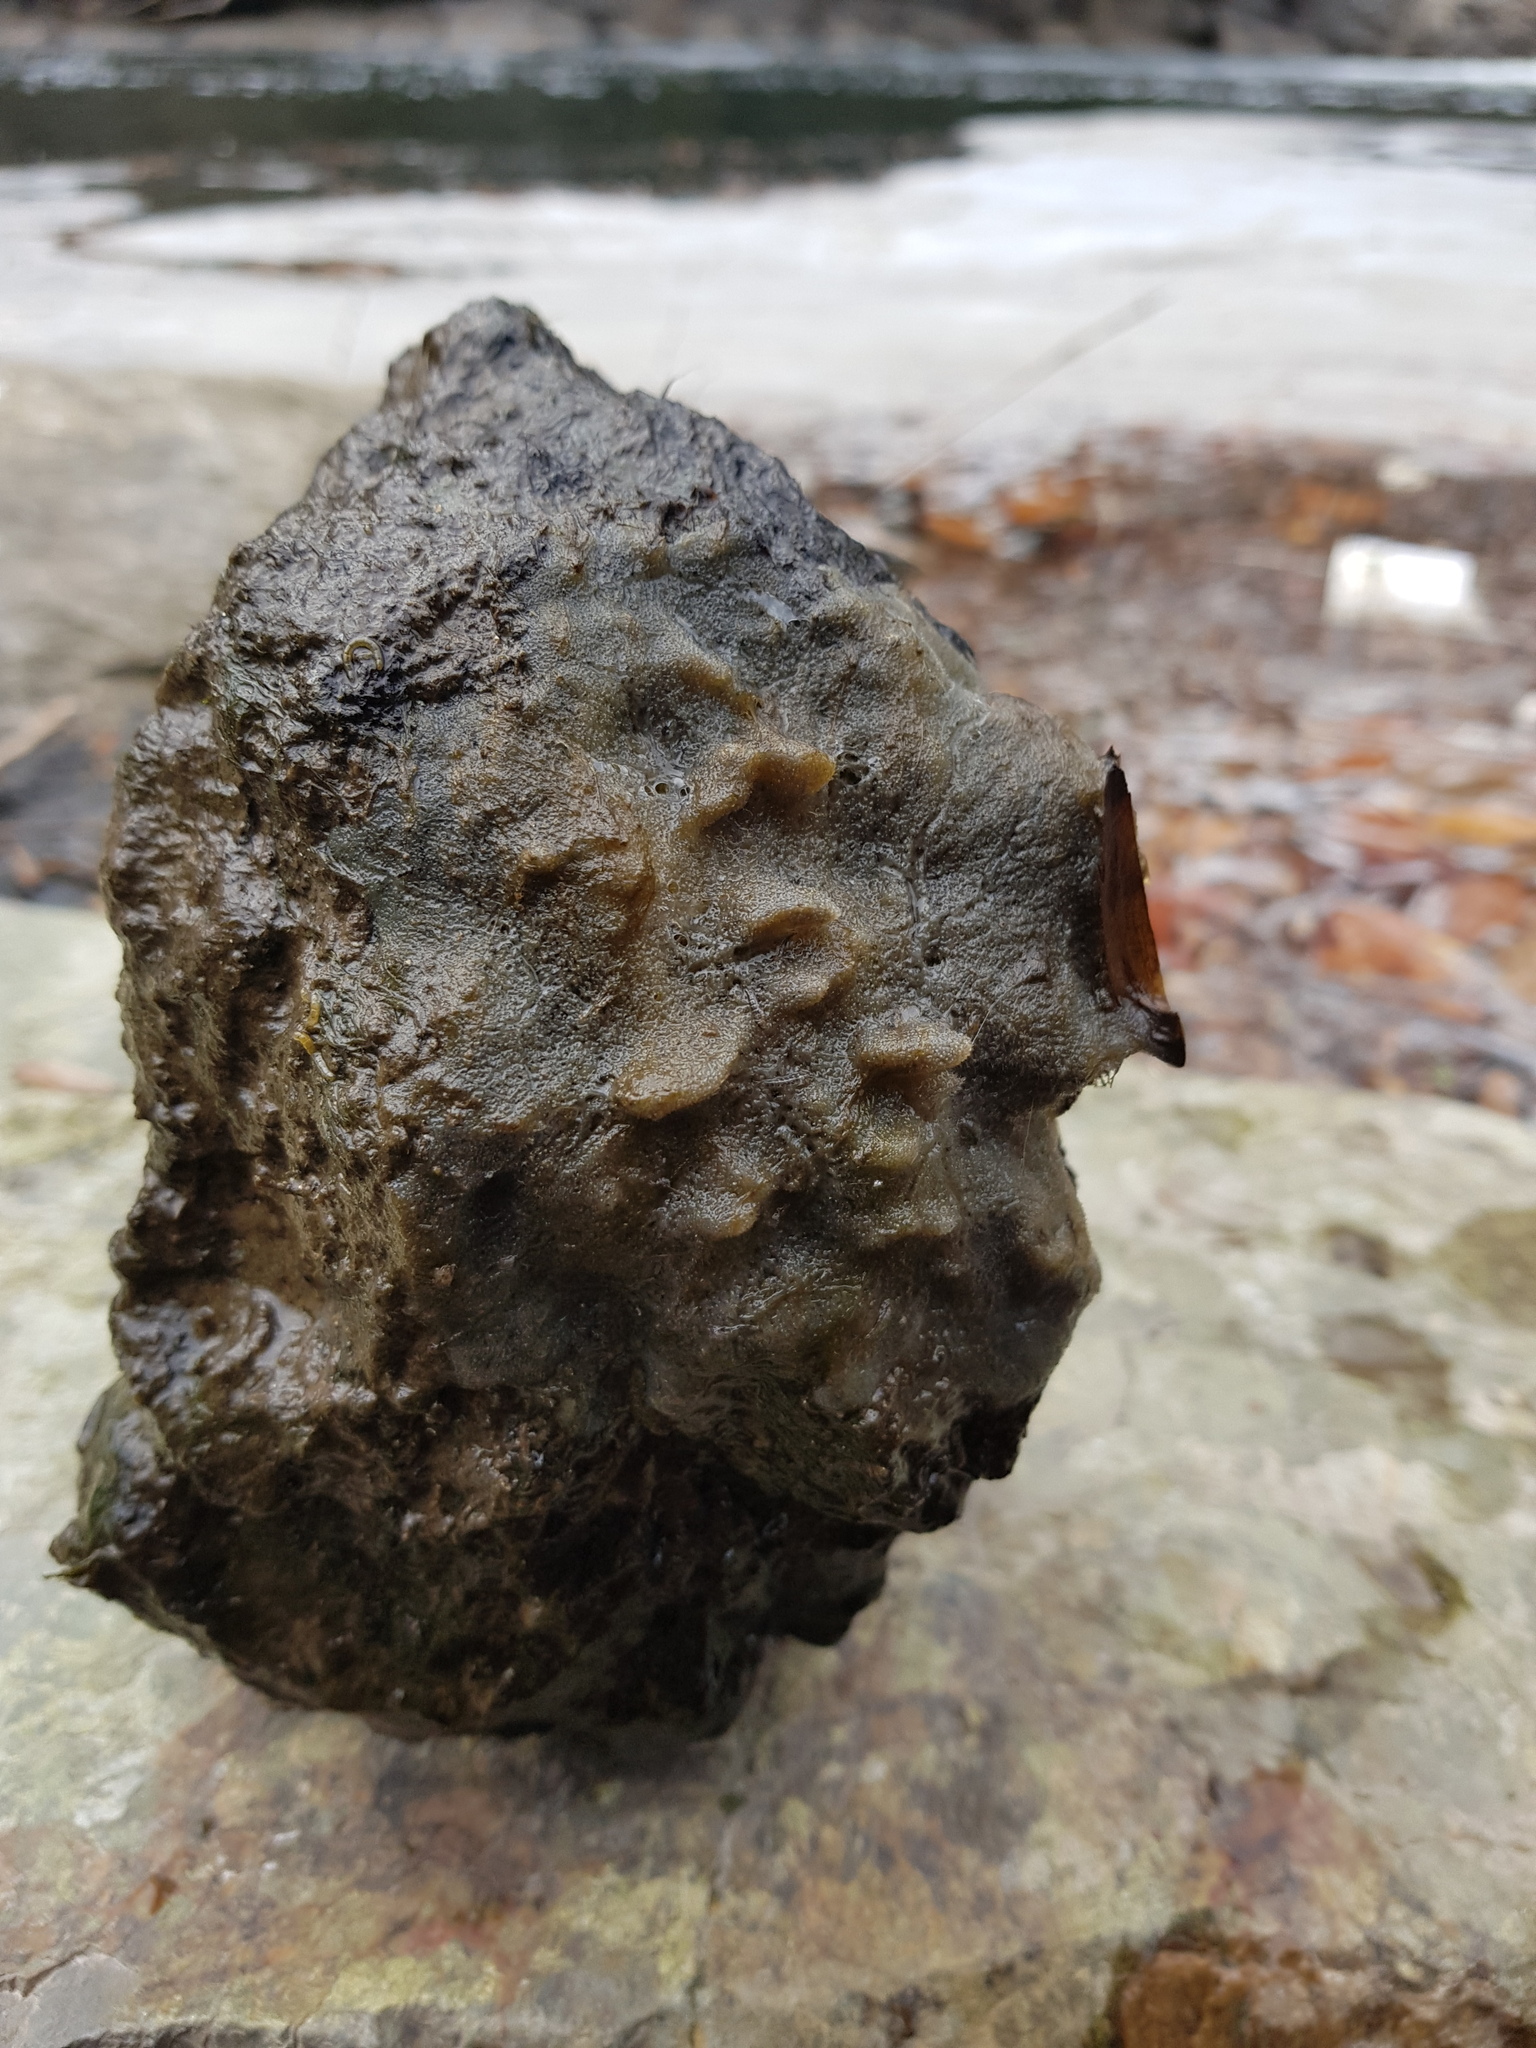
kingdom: Animalia
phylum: Porifera
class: Demospongiae
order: Spongillida
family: Spongillidae
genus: Ephydatia
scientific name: Ephydatia fluviatilis
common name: Brackish water freshwater sponge
